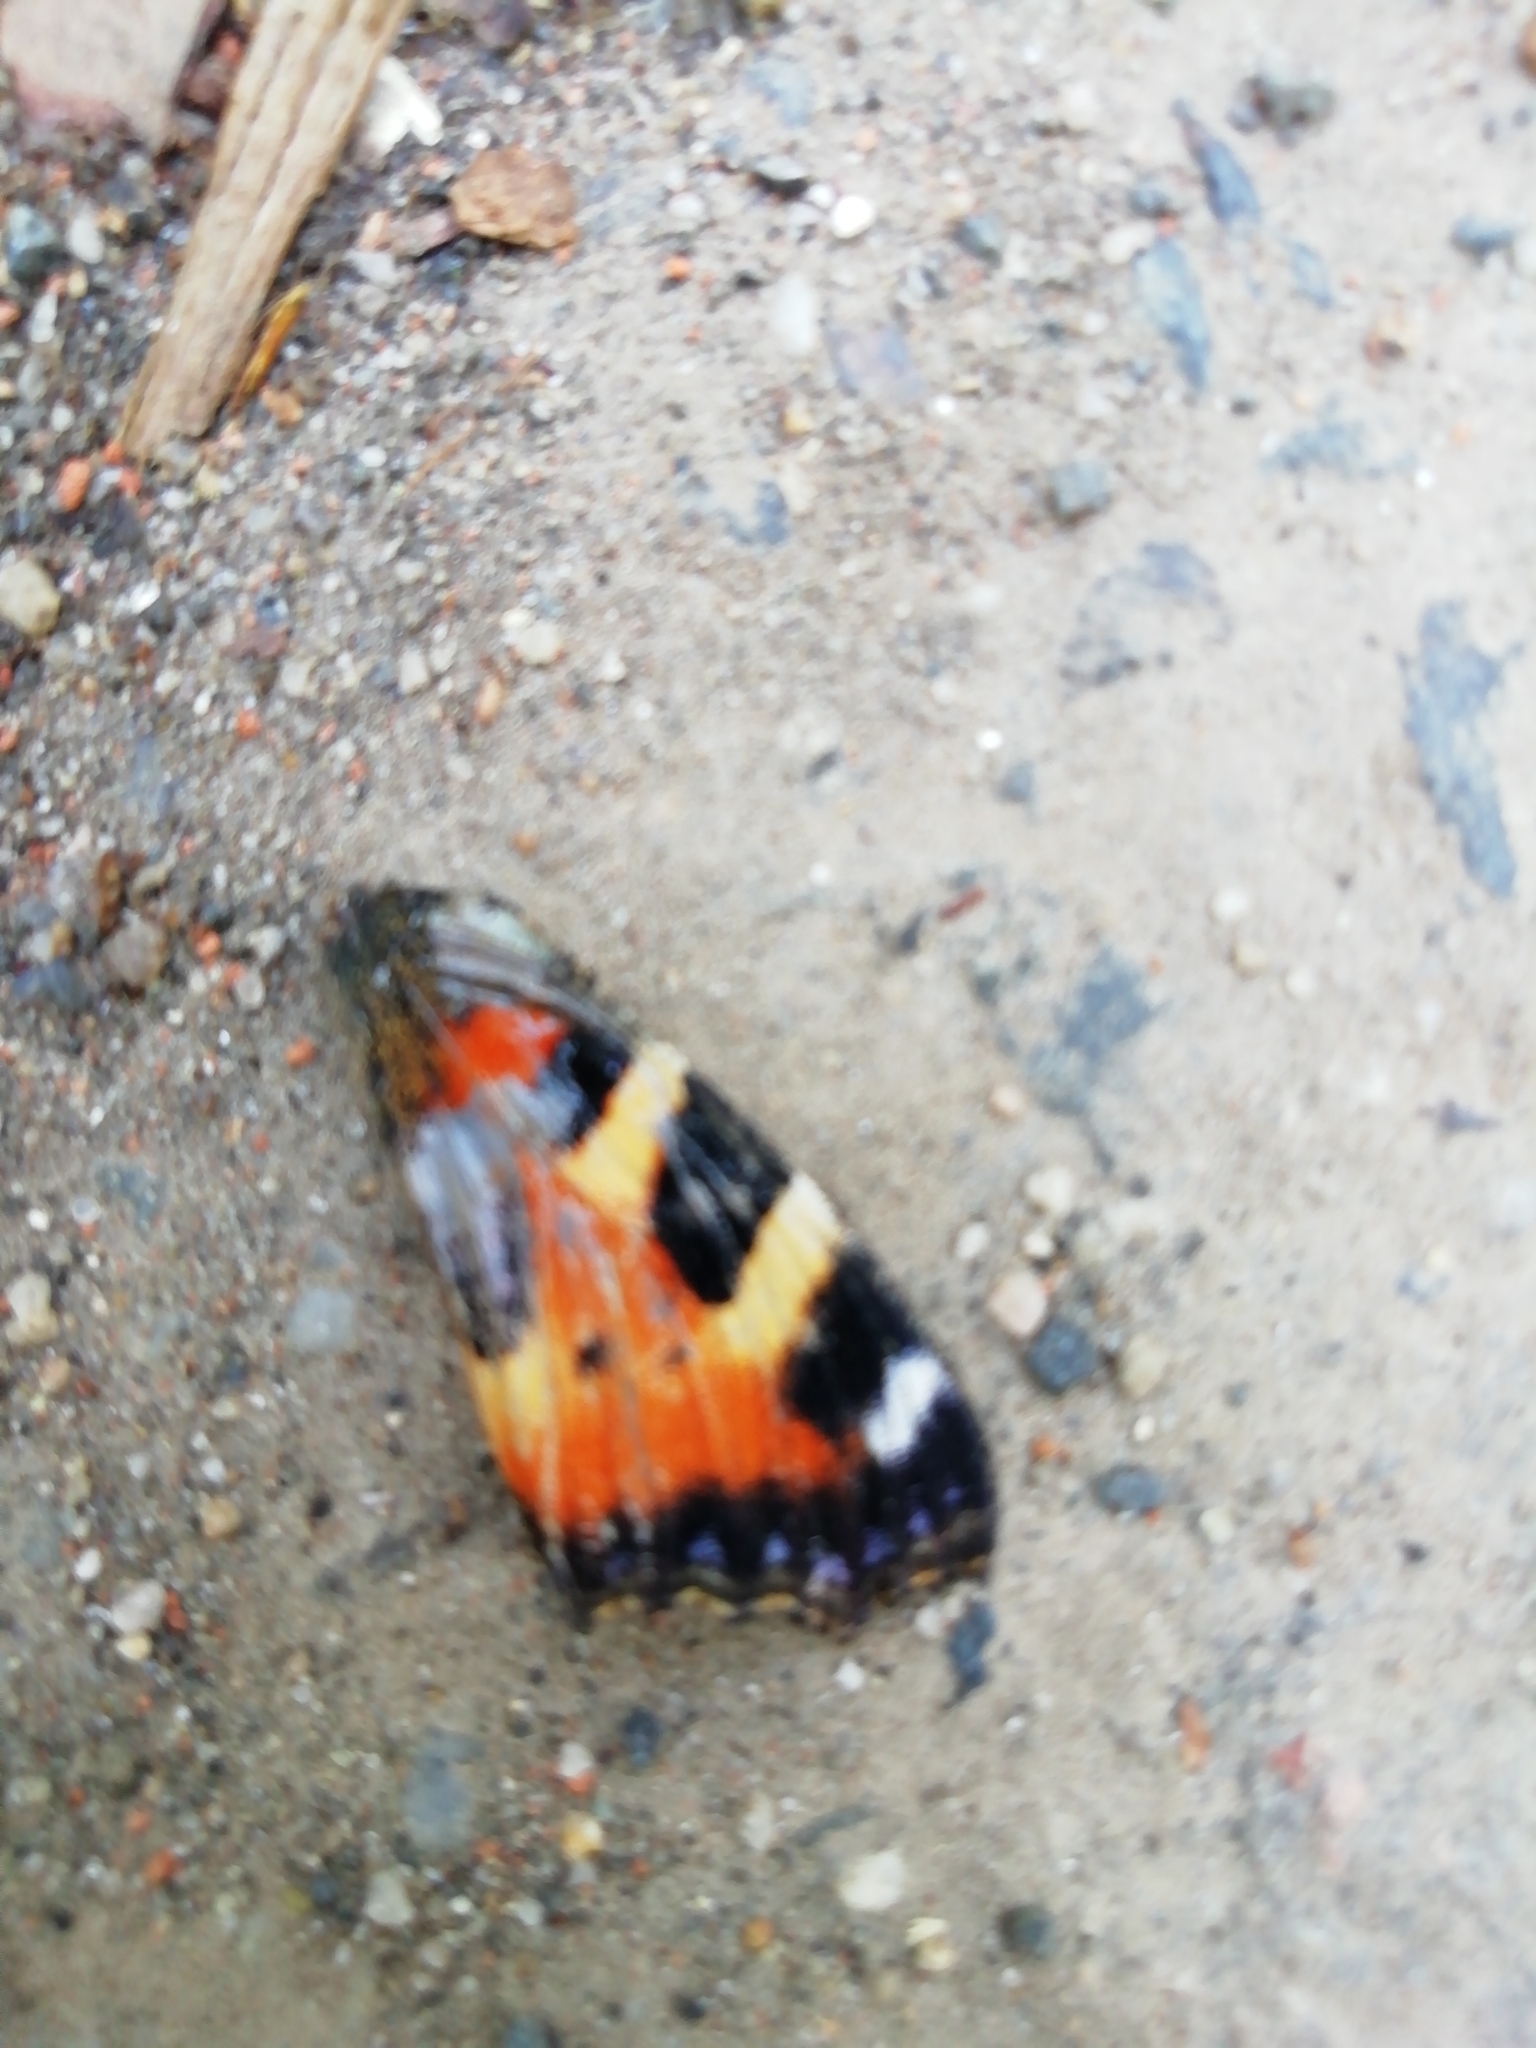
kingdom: Animalia
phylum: Arthropoda
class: Insecta
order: Lepidoptera
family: Nymphalidae
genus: Aglais
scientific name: Aglais urticae
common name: Small tortoiseshell
